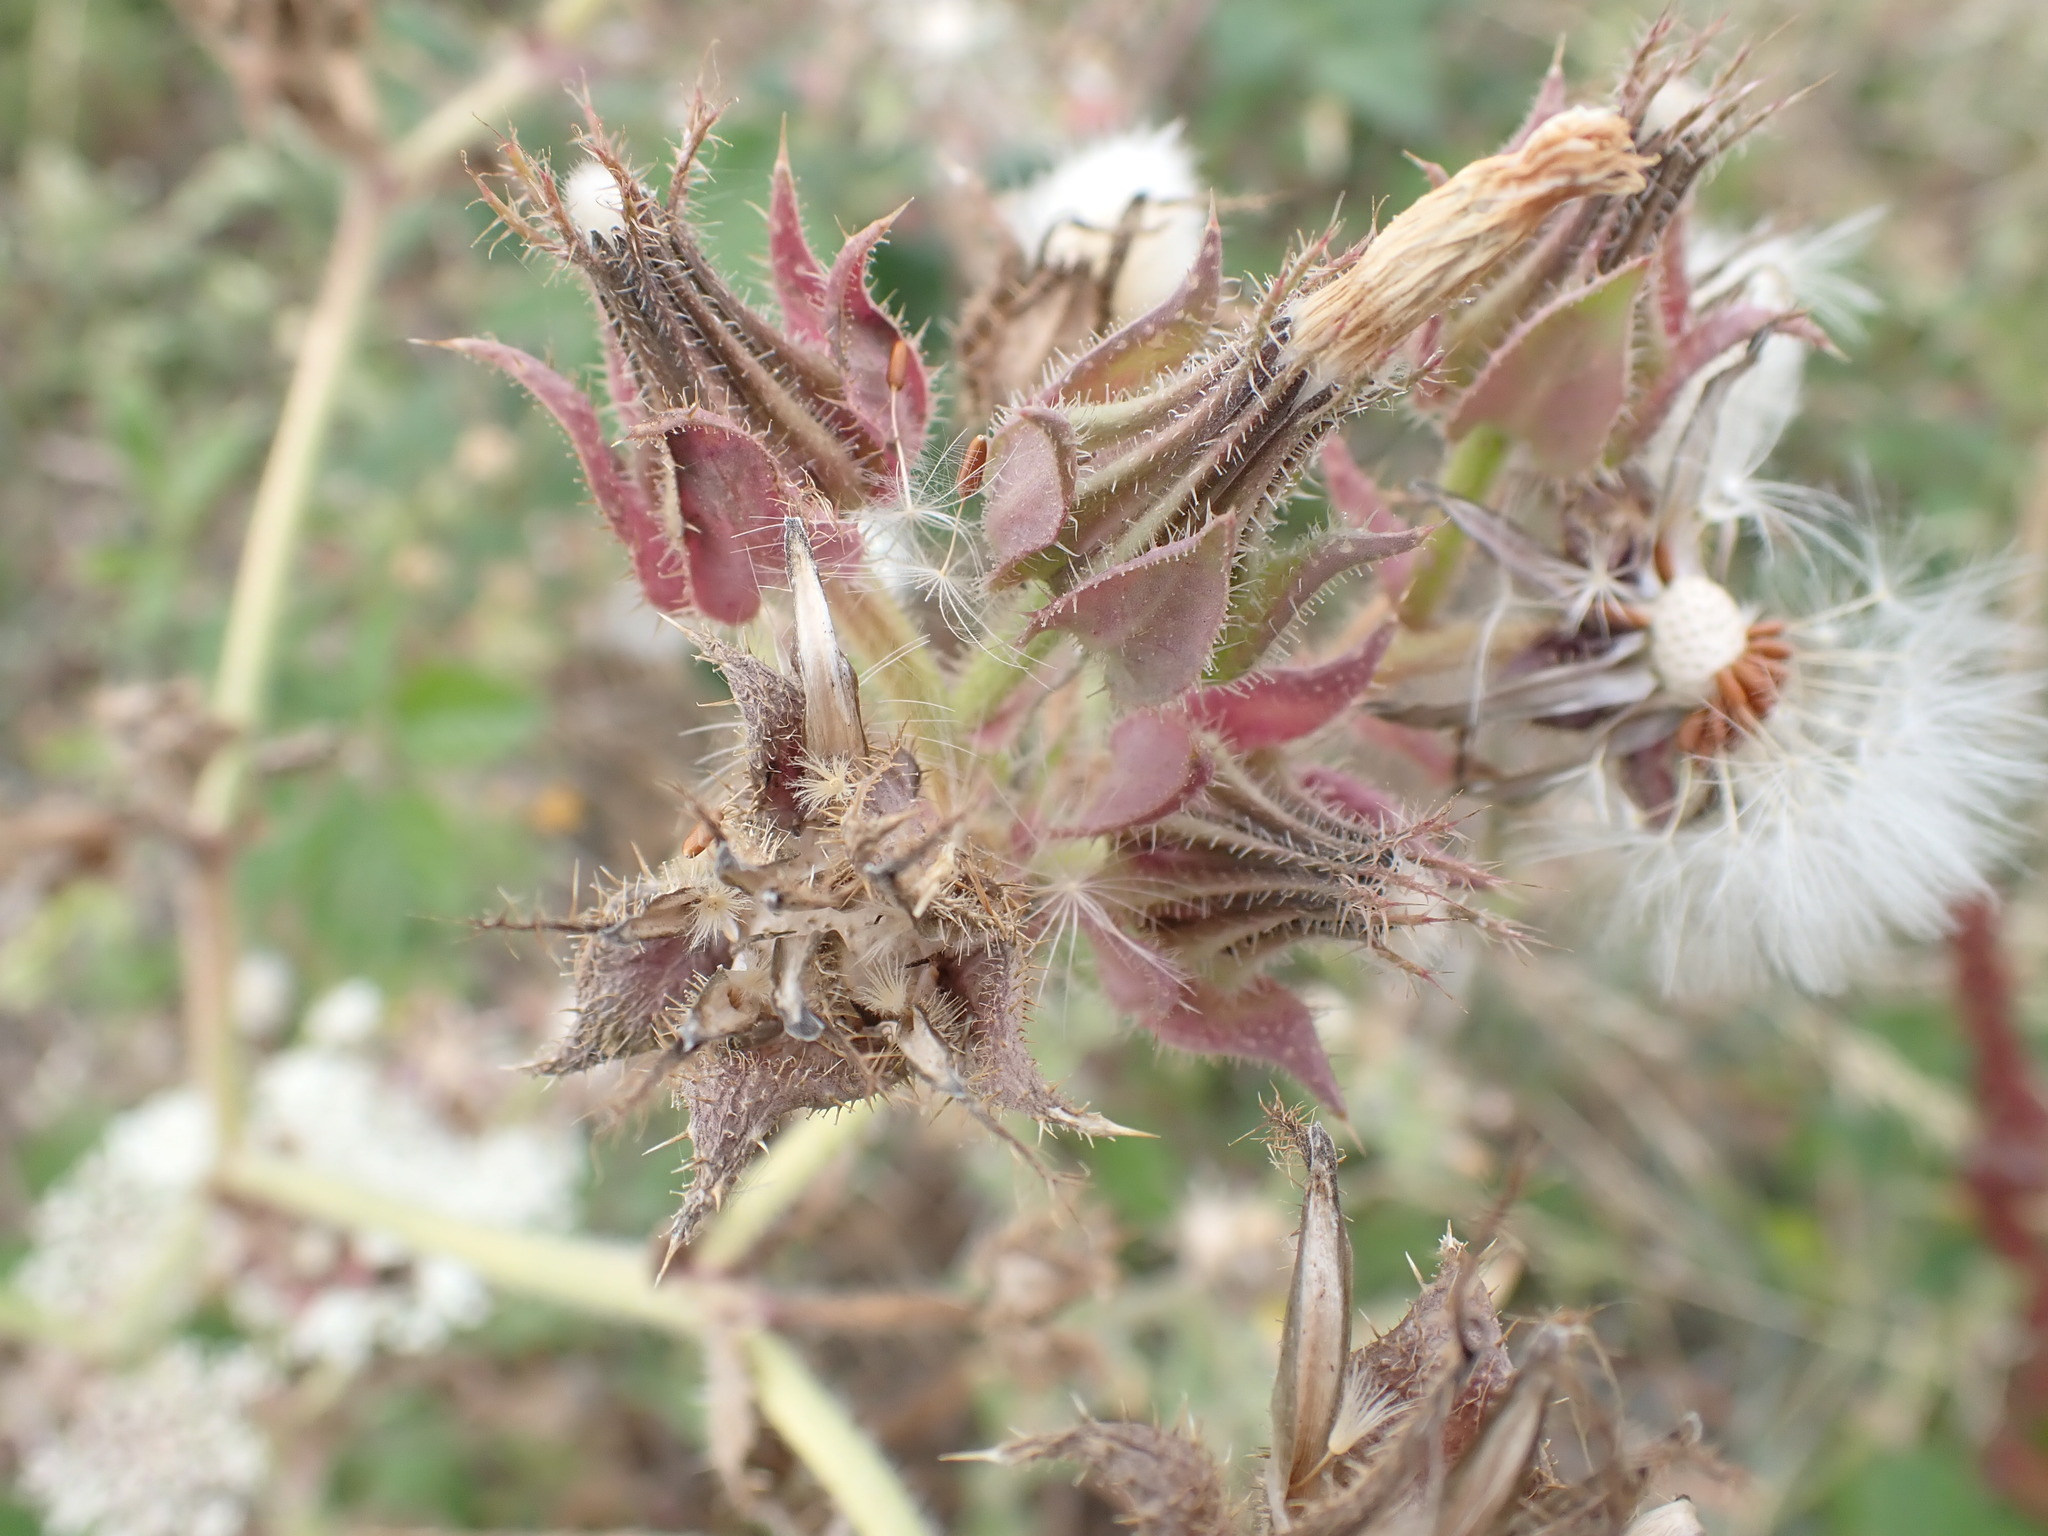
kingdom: Plantae
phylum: Tracheophyta
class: Magnoliopsida
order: Asterales
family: Asteraceae
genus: Helminthotheca
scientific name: Helminthotheca echioides
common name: Ox-tongue
